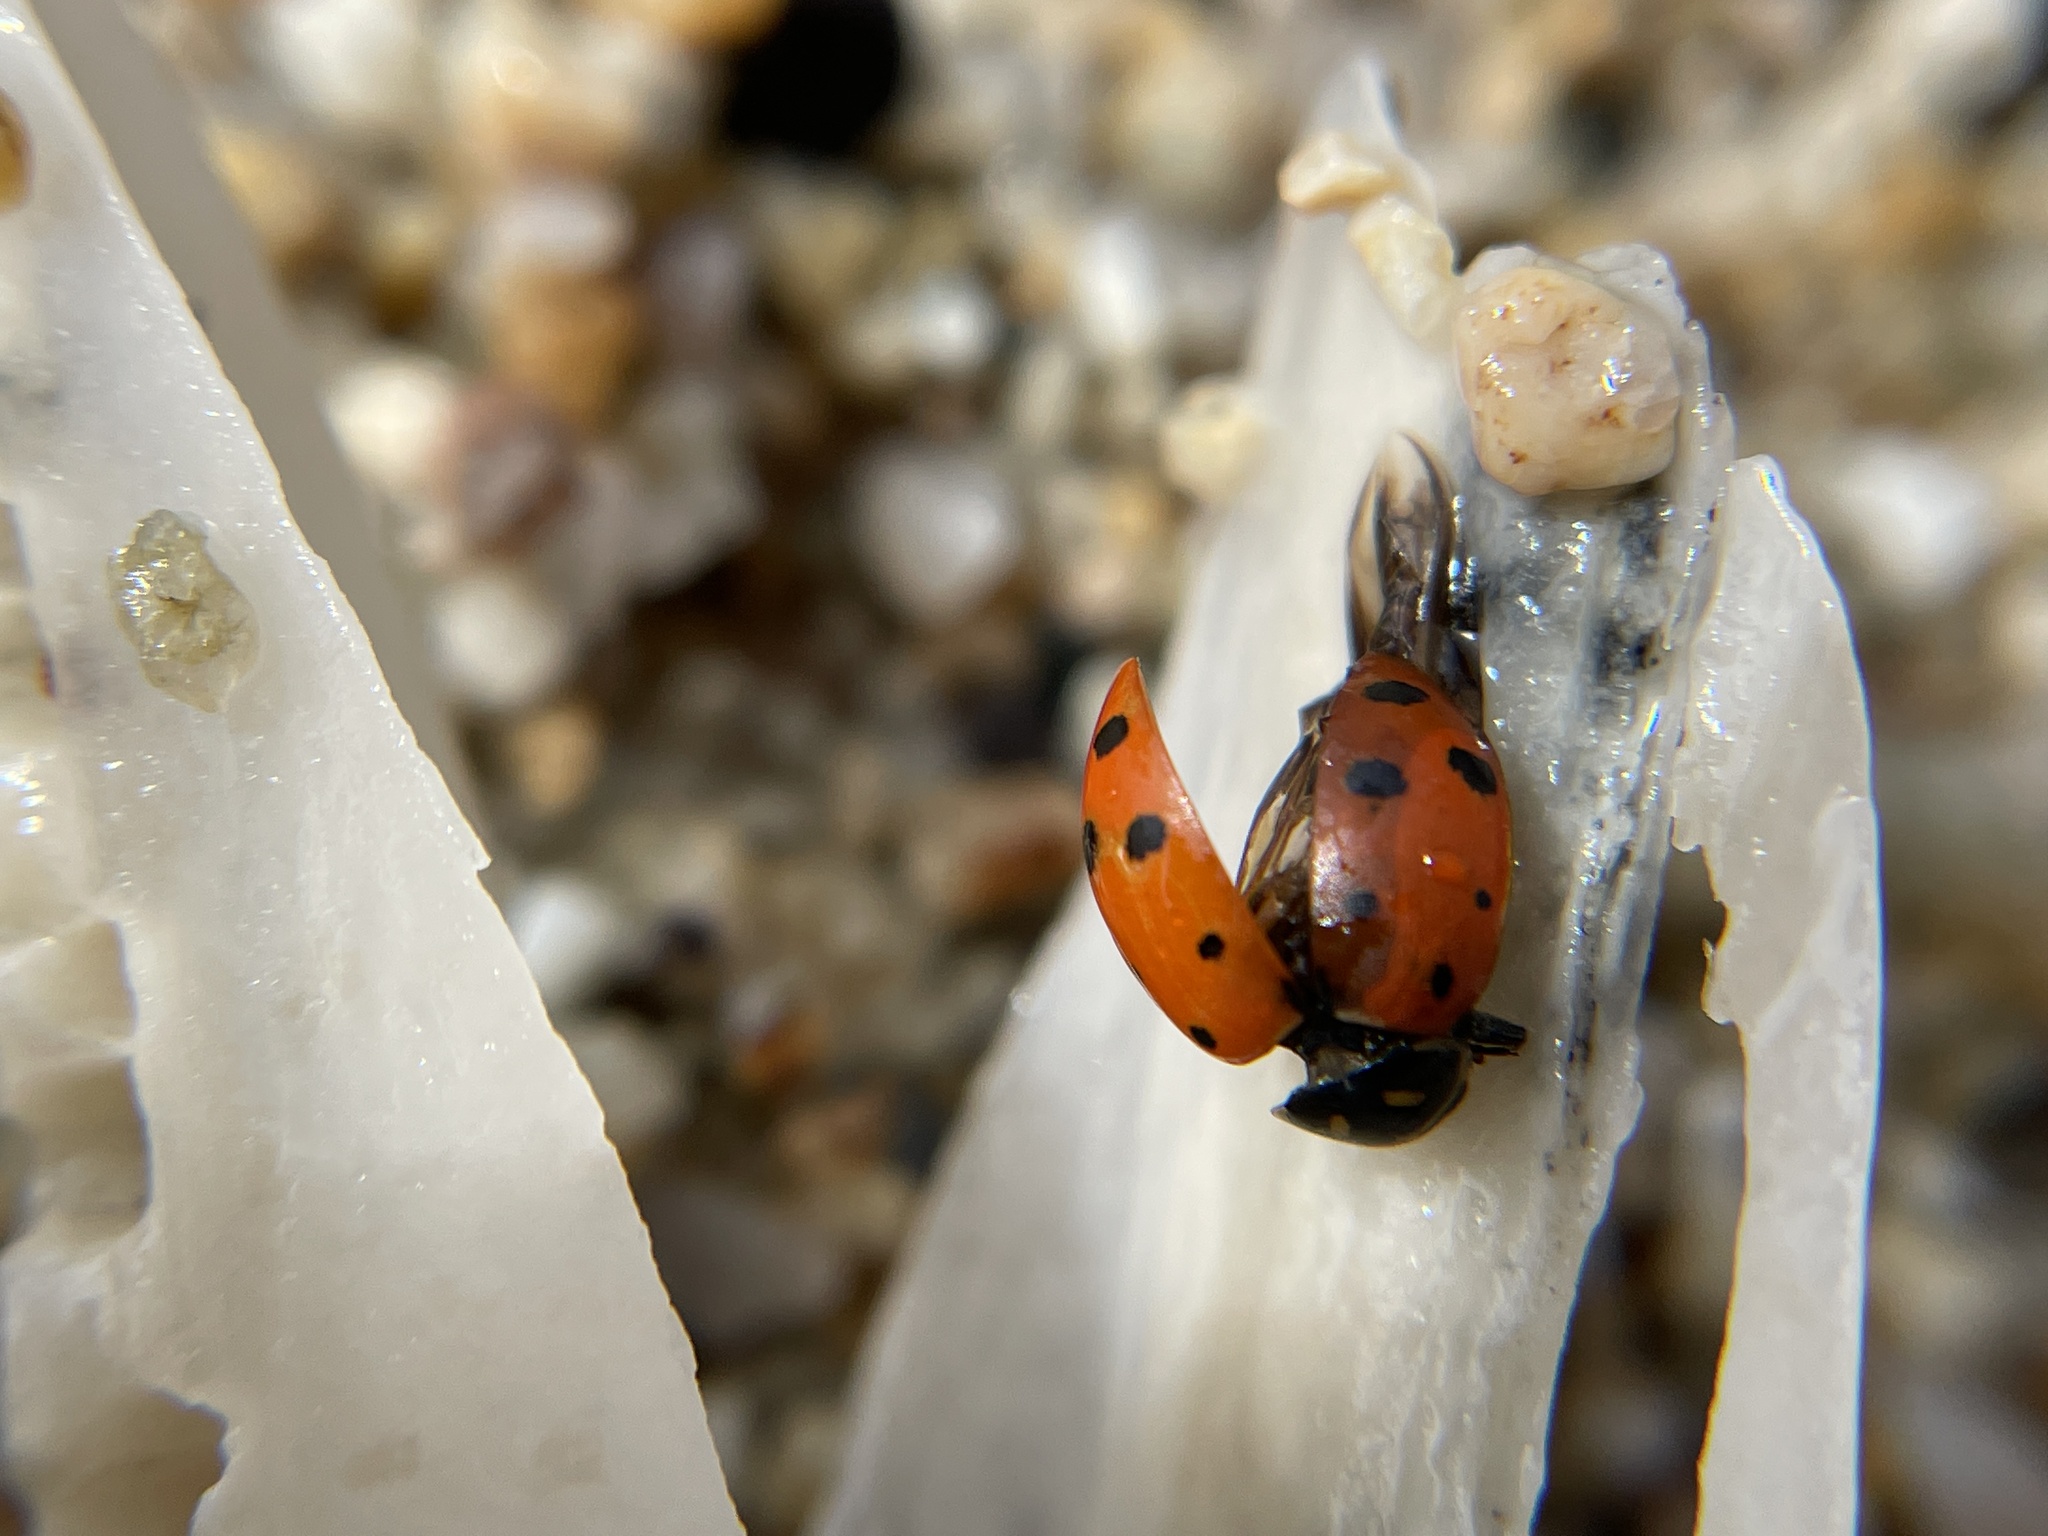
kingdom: Animalia
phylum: Arthropoda
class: Insecta
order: Coleoptera
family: Coccinellidae
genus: Hippodamia
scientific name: Hippodamia convergens
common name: Convergent lady beetle
